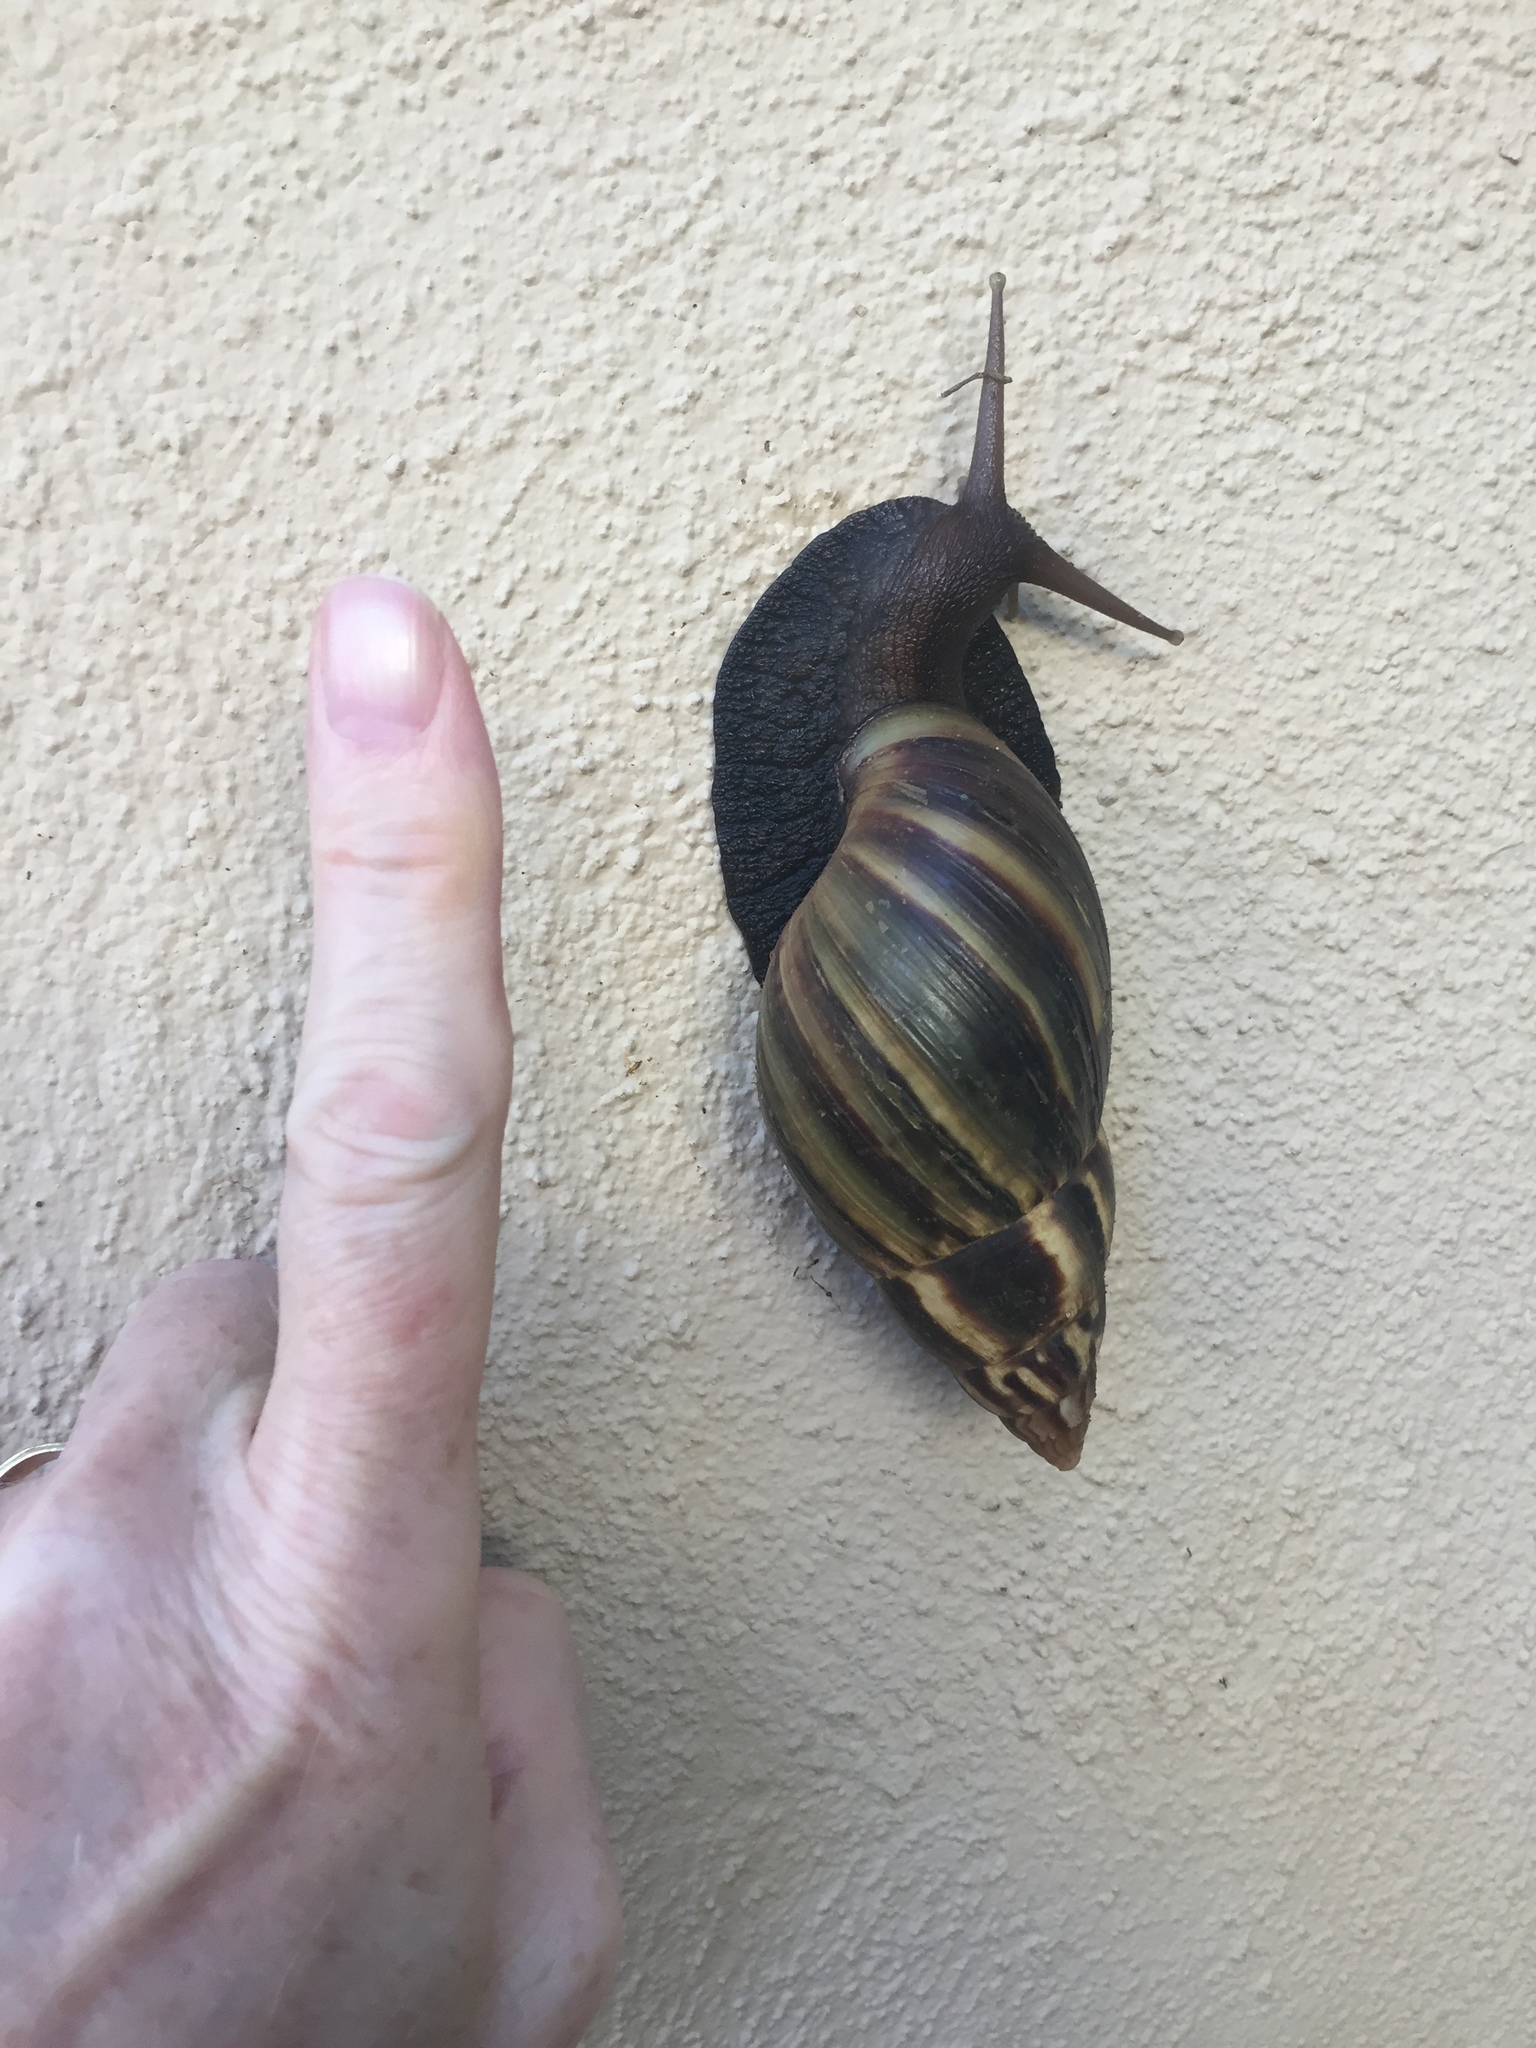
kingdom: Animalia
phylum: Mollusca
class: Gastropoda
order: Stylommatophora
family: Achatinidae
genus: Lissachatina
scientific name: Lissachatina fulica
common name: Giant african snail
